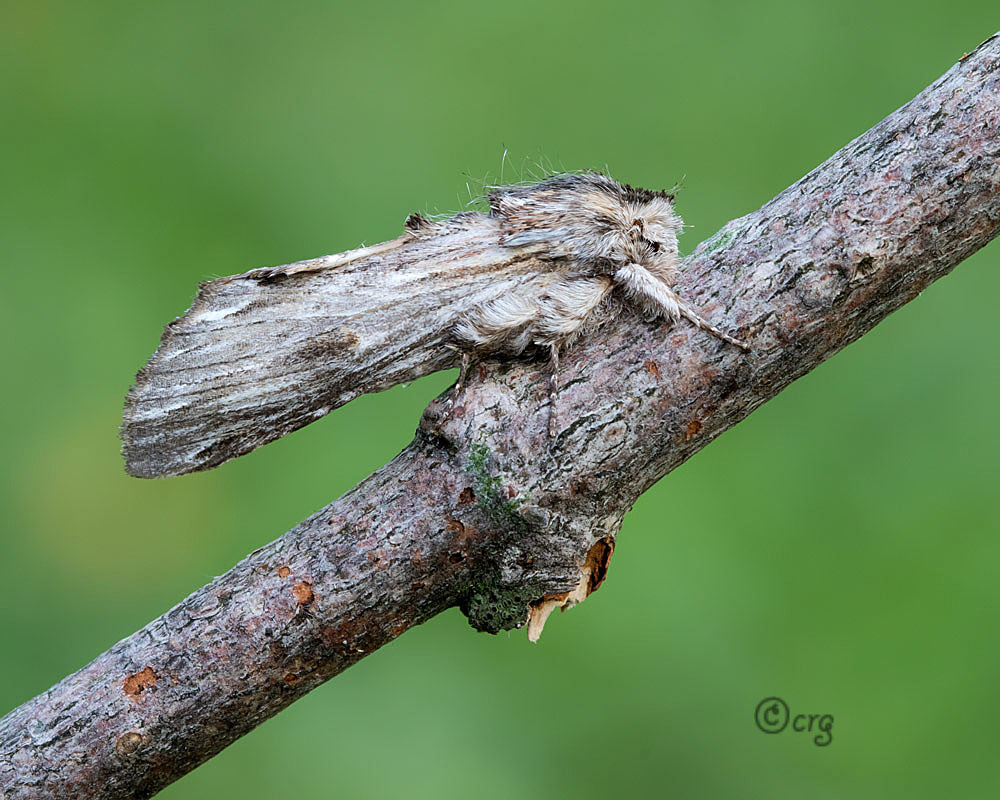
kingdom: Animalia
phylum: Arthropoda
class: Insecta
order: Lepidoptera
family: Notodontidae
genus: Oligocentria
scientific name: Oligocentria Ianassa lignicolor
